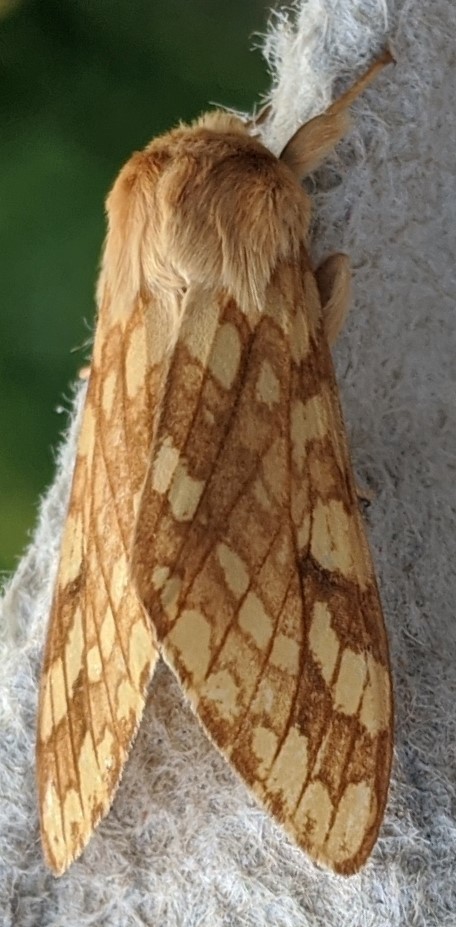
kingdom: Animalia
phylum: Arthropoda
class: Insecta
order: Lepidoptera
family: Erebidae
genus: Lophocampa
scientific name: Lophocampa maculata
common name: Spotted tussock moth
